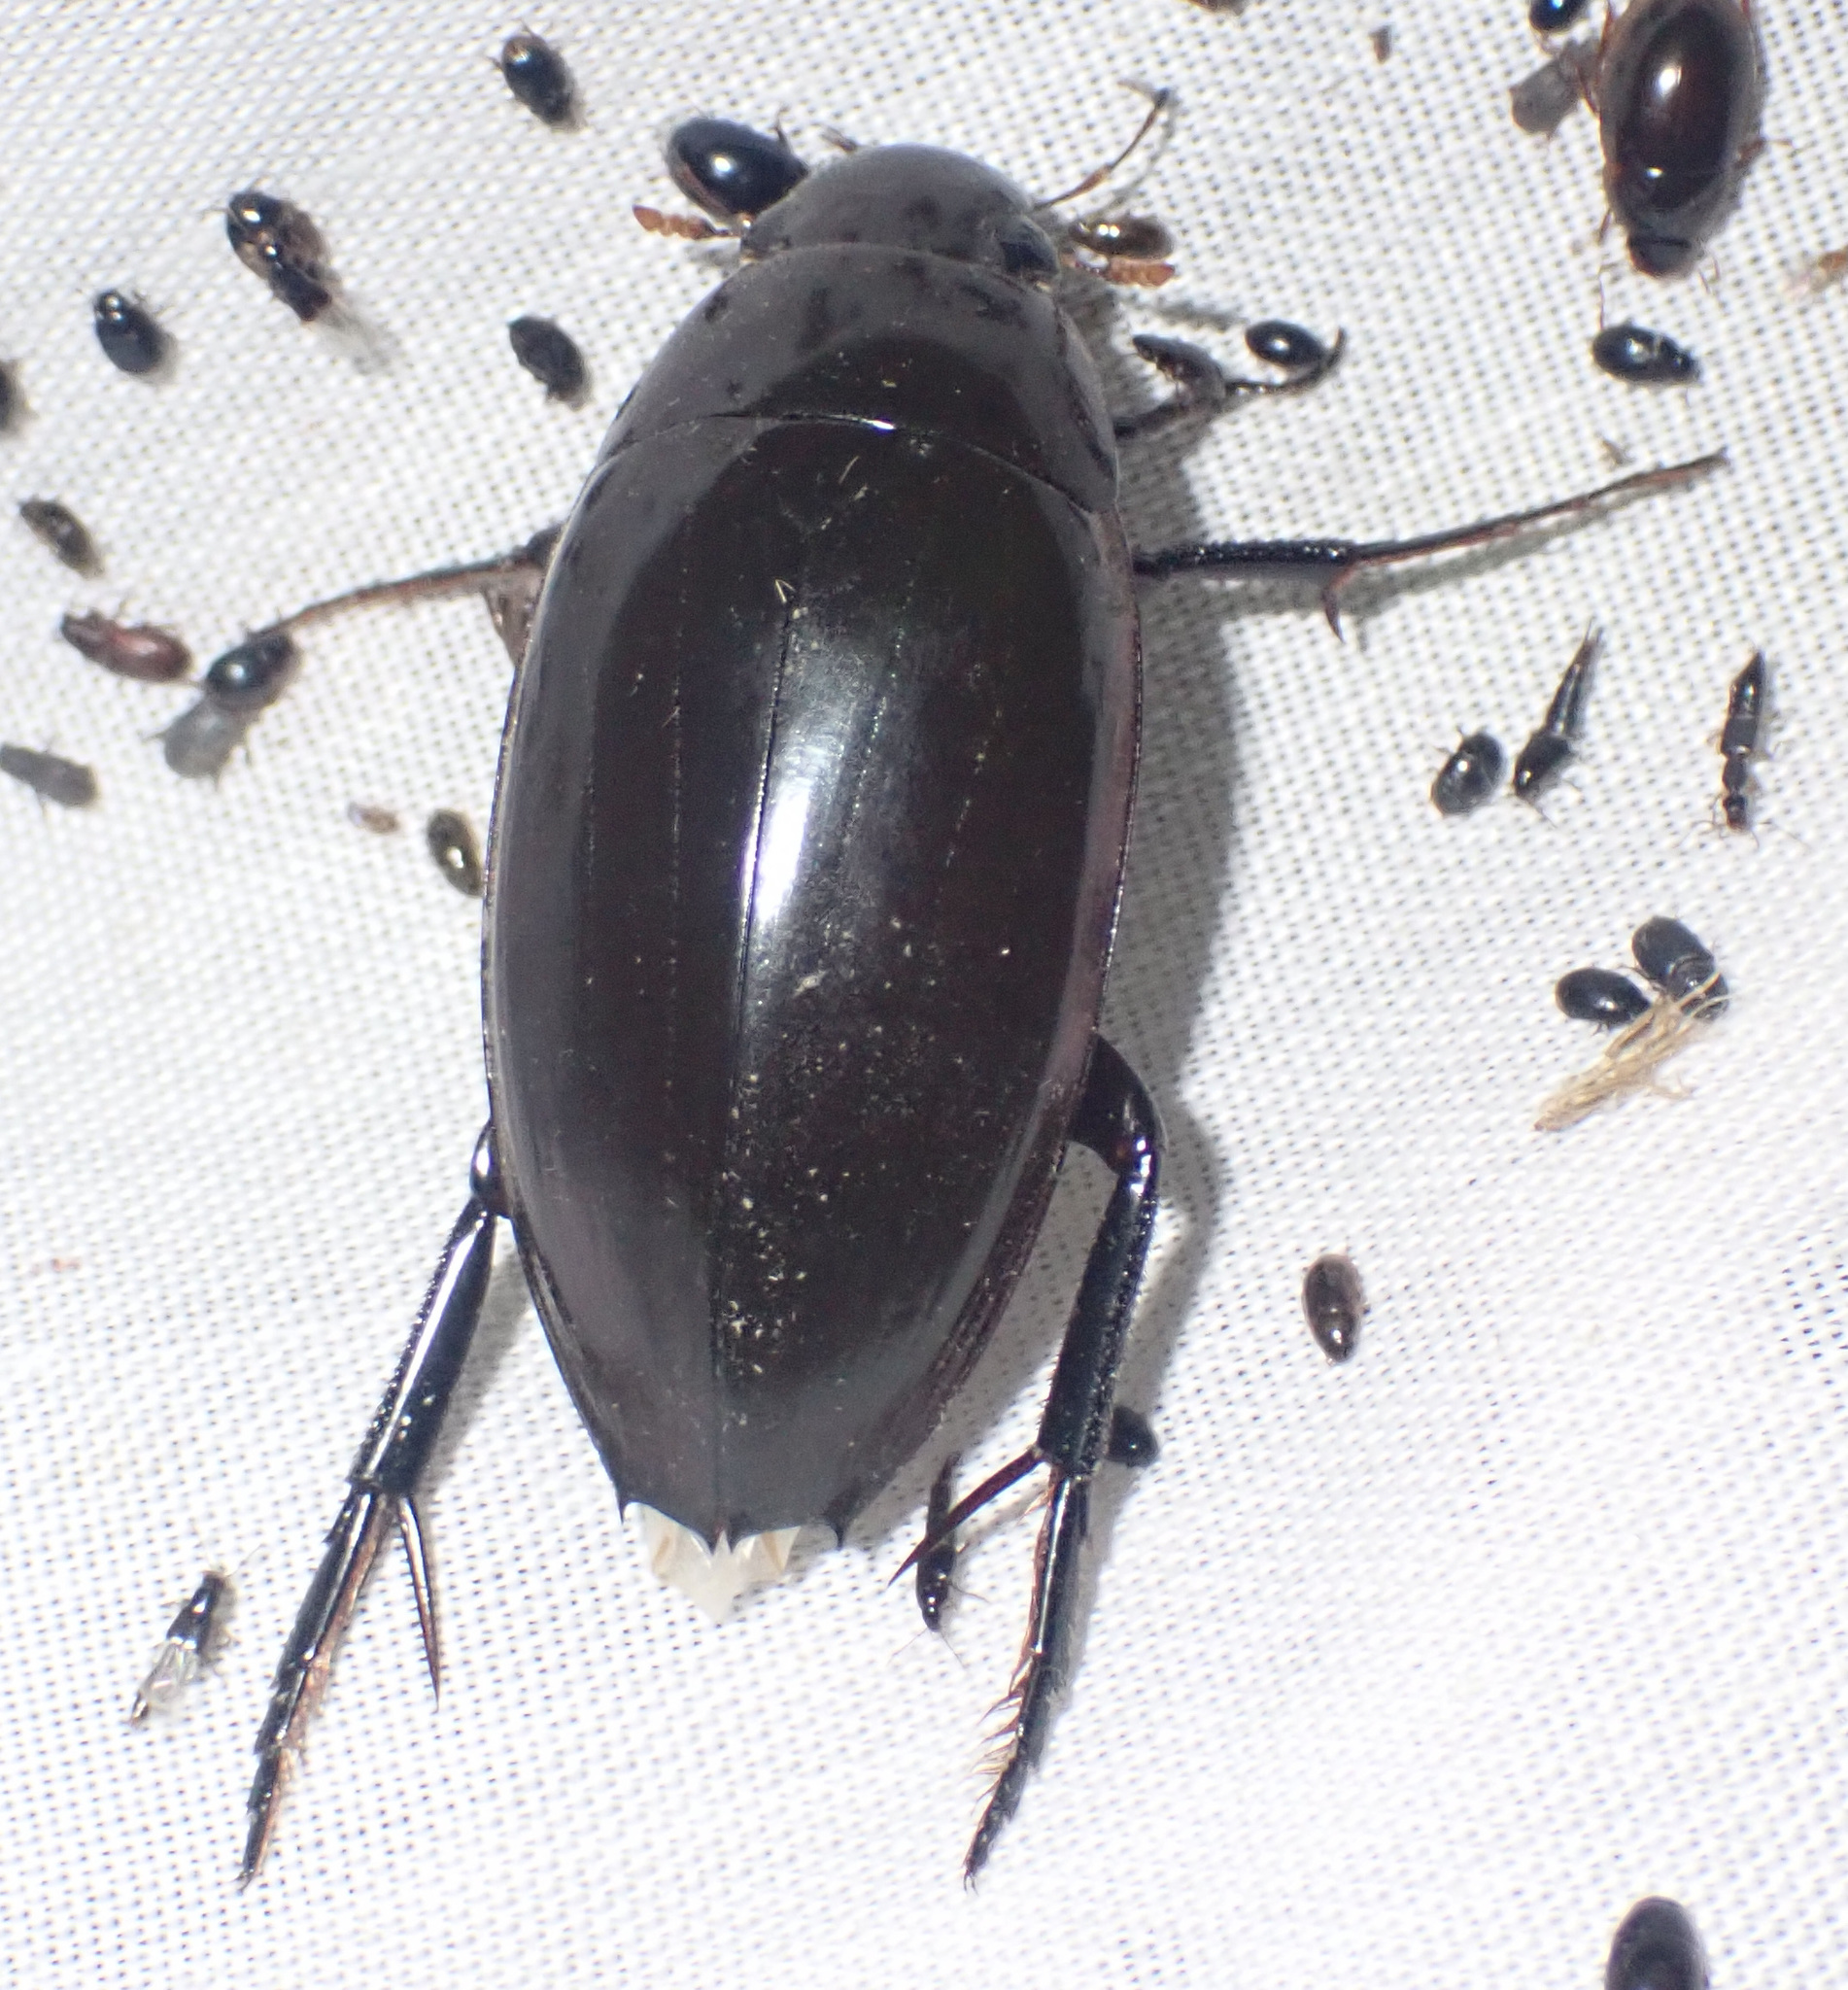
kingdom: Animalia
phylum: Arthropoda
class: Insecta
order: Coleoptera
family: Hydrophilidae
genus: Hydrophilus
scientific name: Hydrophilus aculeatus
